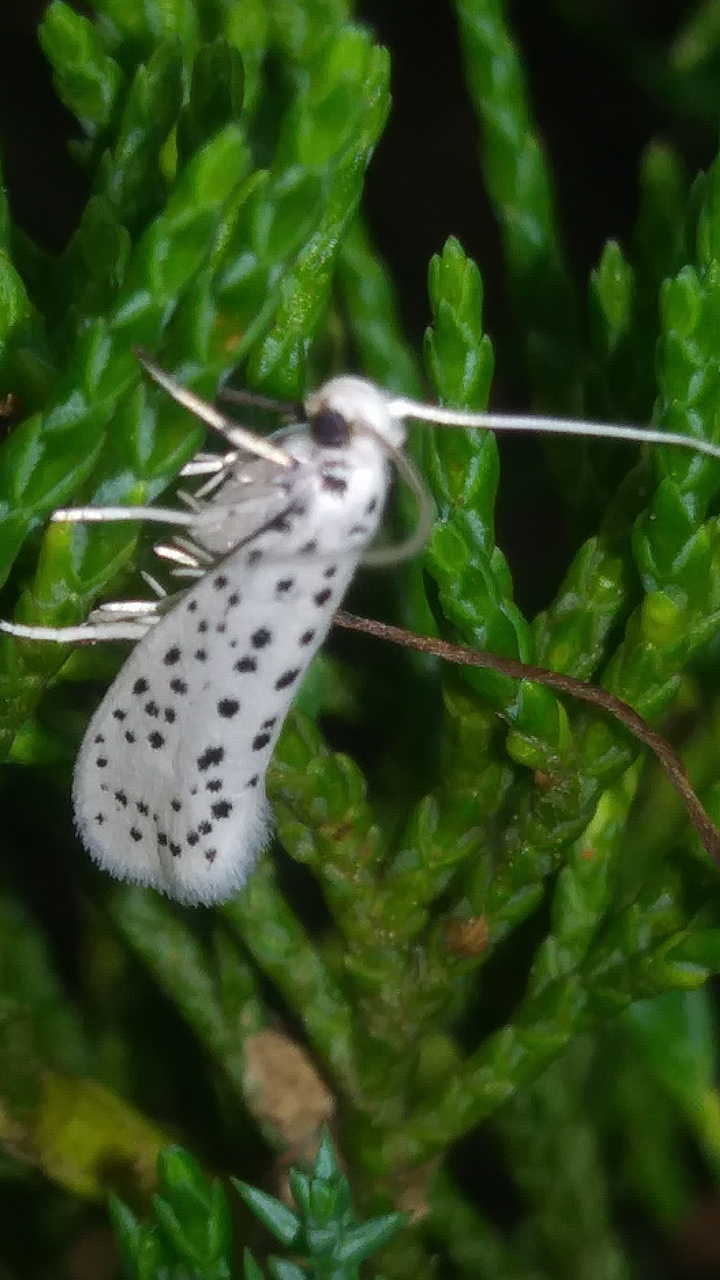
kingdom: Animalia
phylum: Arthropoda
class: Insecta
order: Lepidoptera
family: Yponomeutidae
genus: Yponomeuta
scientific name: Yponomeuta multipunctella
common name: American ermine moth
